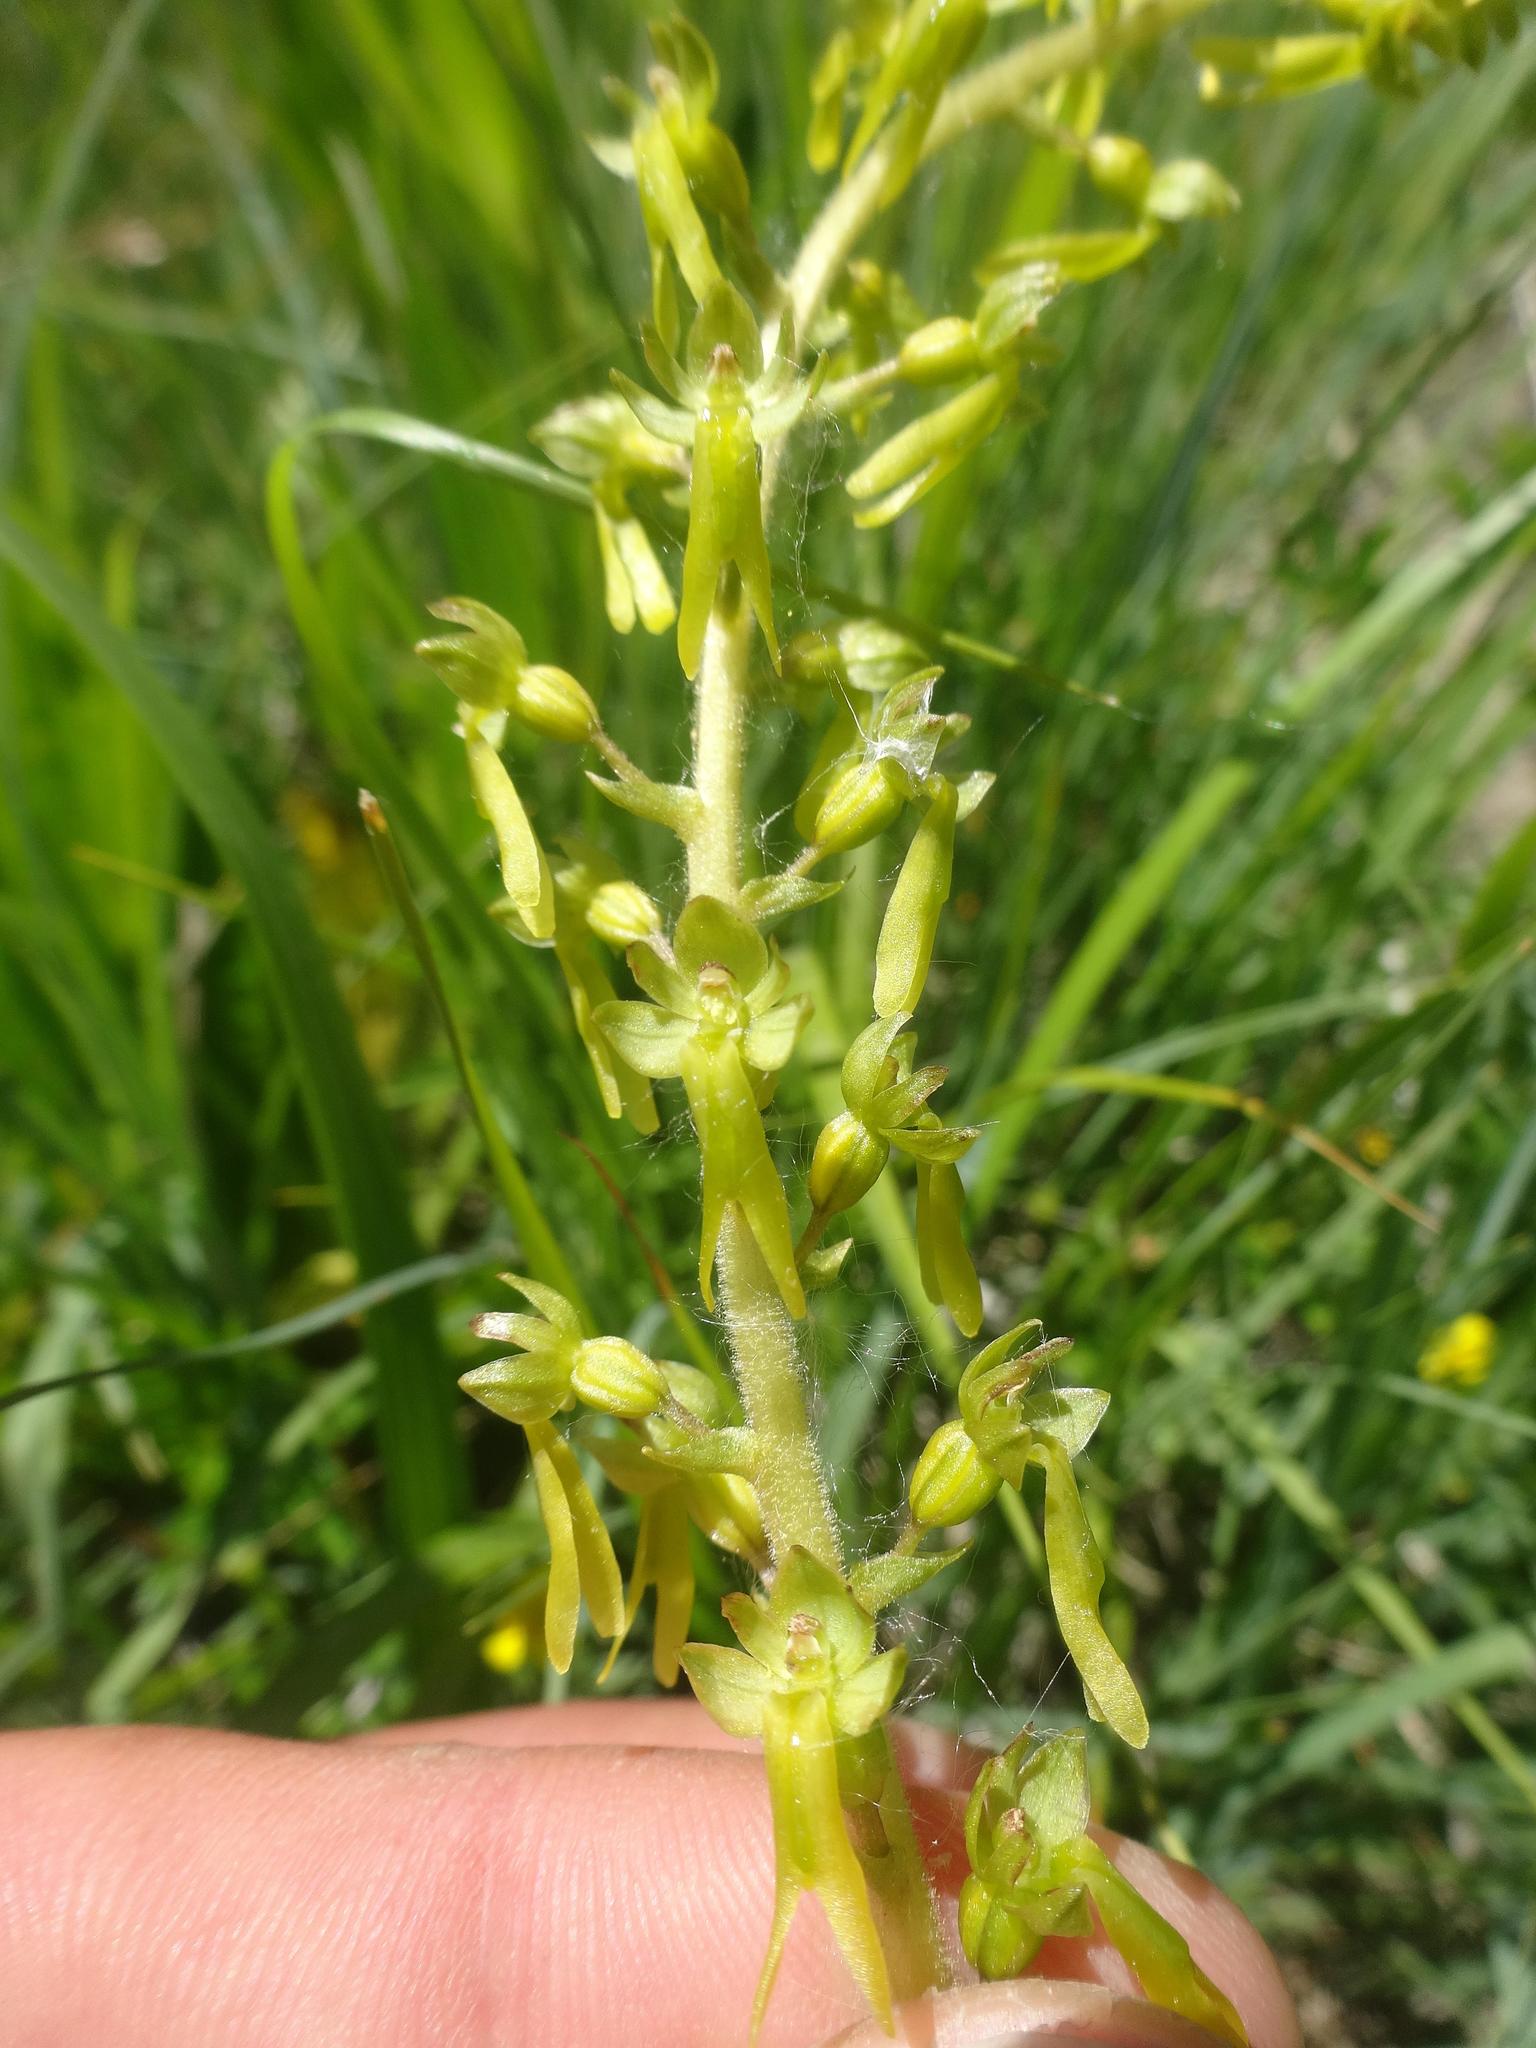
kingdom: Plantae
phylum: Tracheophyta
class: Liliopsida
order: Asparagales
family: Orchidaceae
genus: Neottia
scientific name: Neottia ovata
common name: Common twayblade
